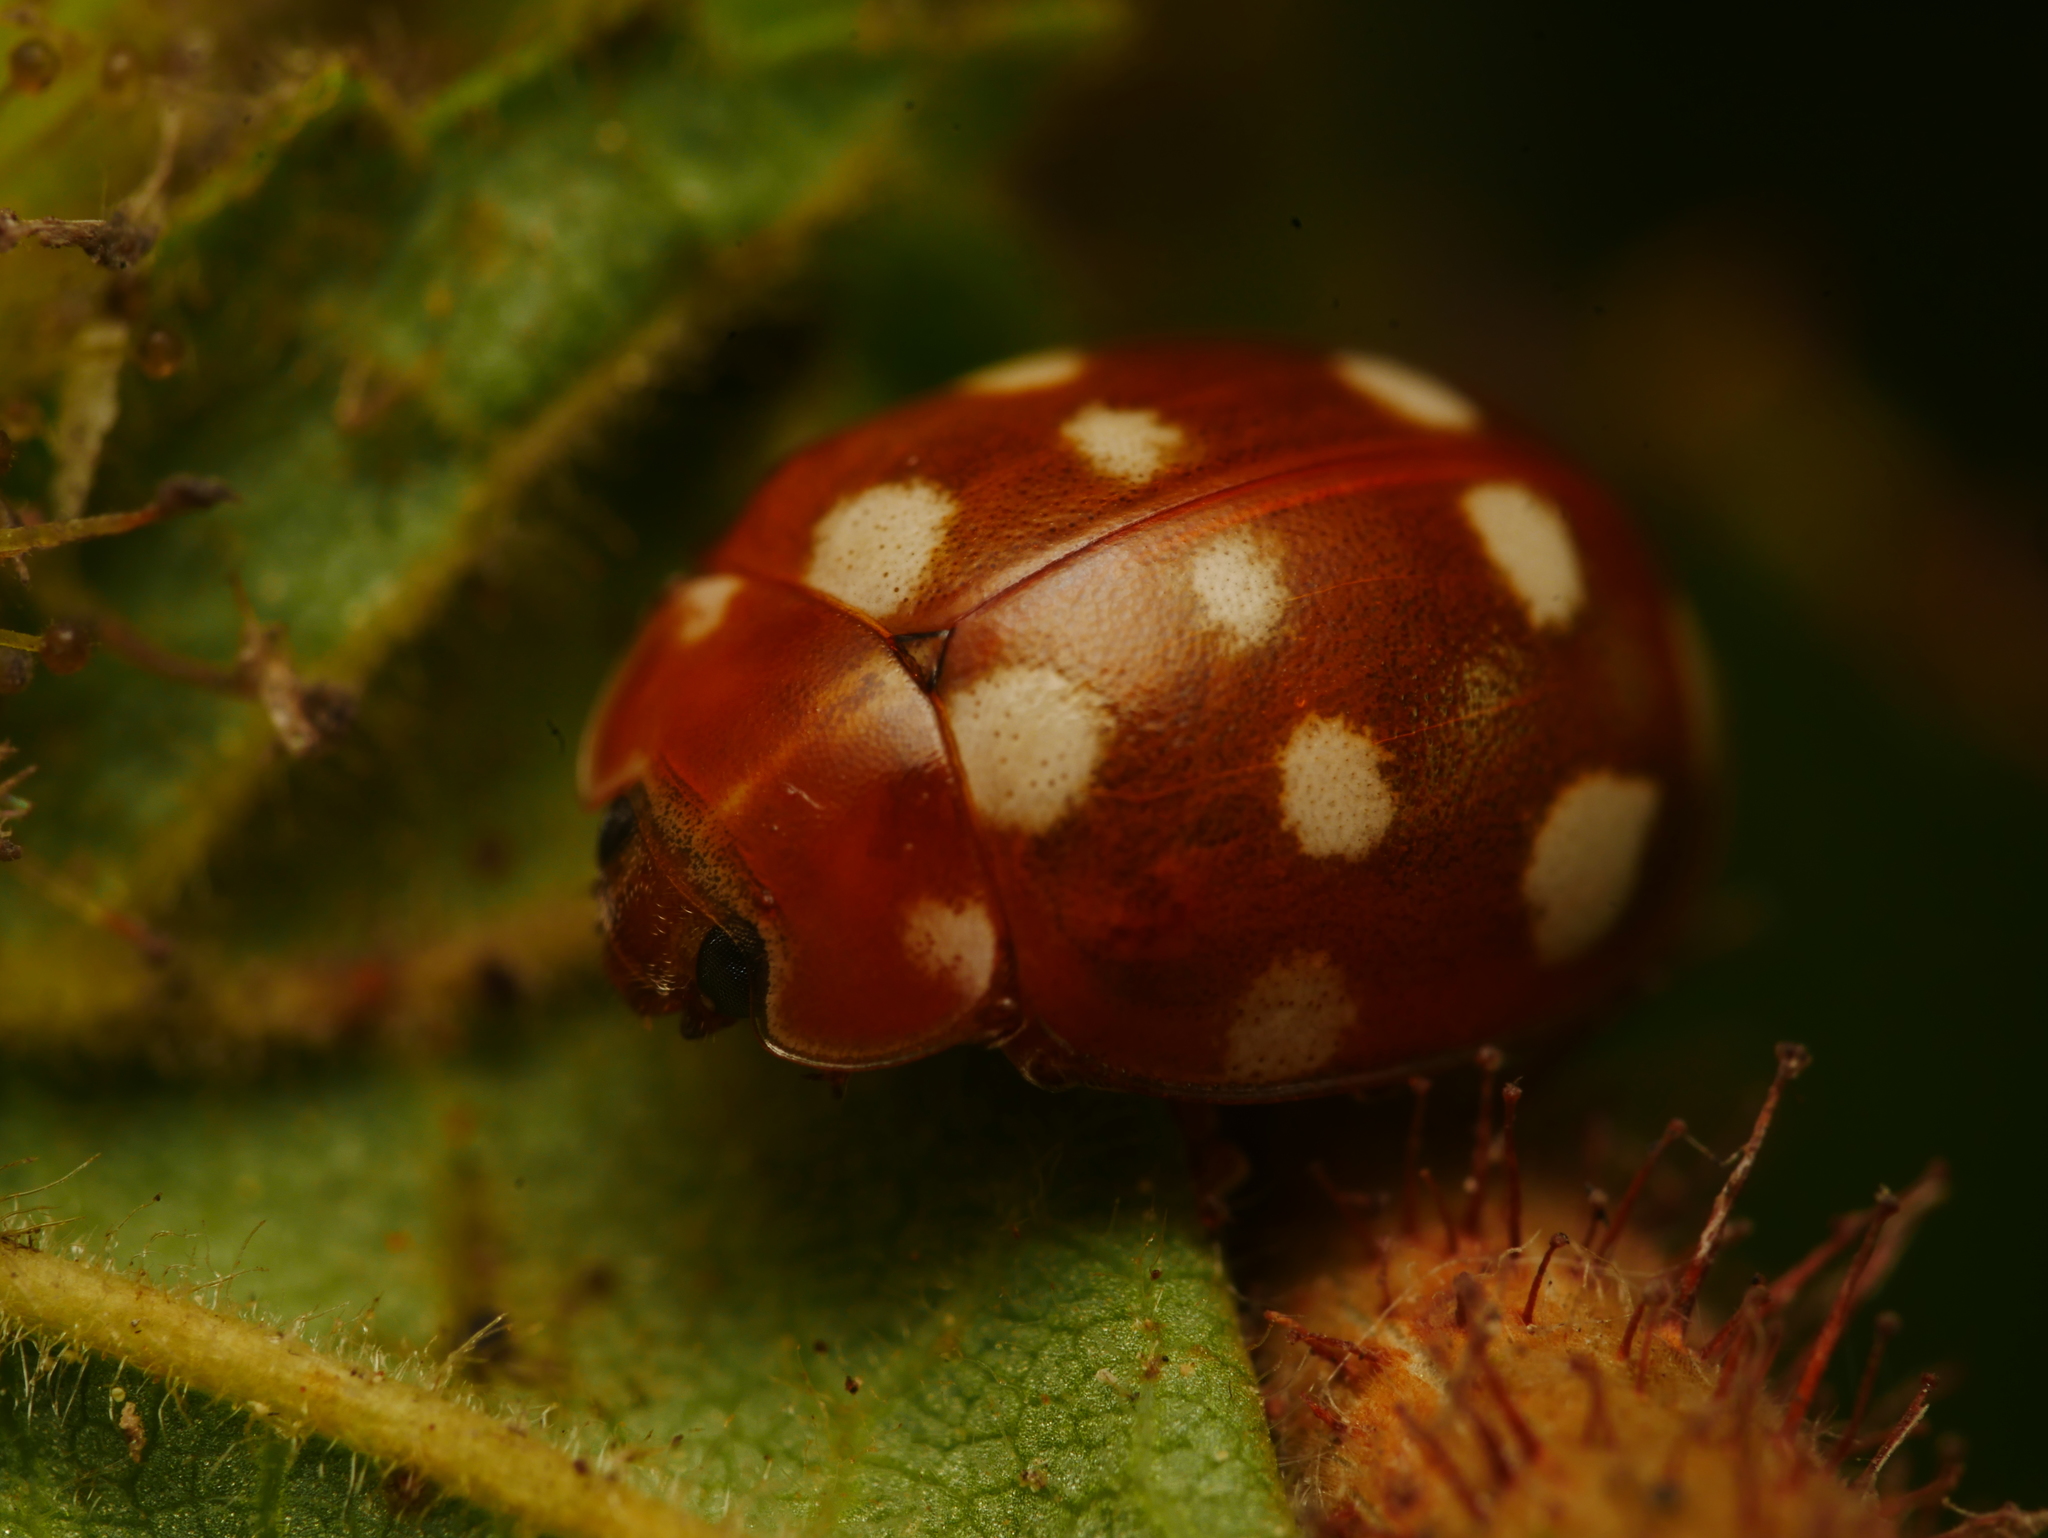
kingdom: Animalia
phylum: Arthropoda
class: Insecta
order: Coleoptera
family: Coccinellidae
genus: Calvia
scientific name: Calvia quatuordecimguttata
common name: Cream-spot ladybird
